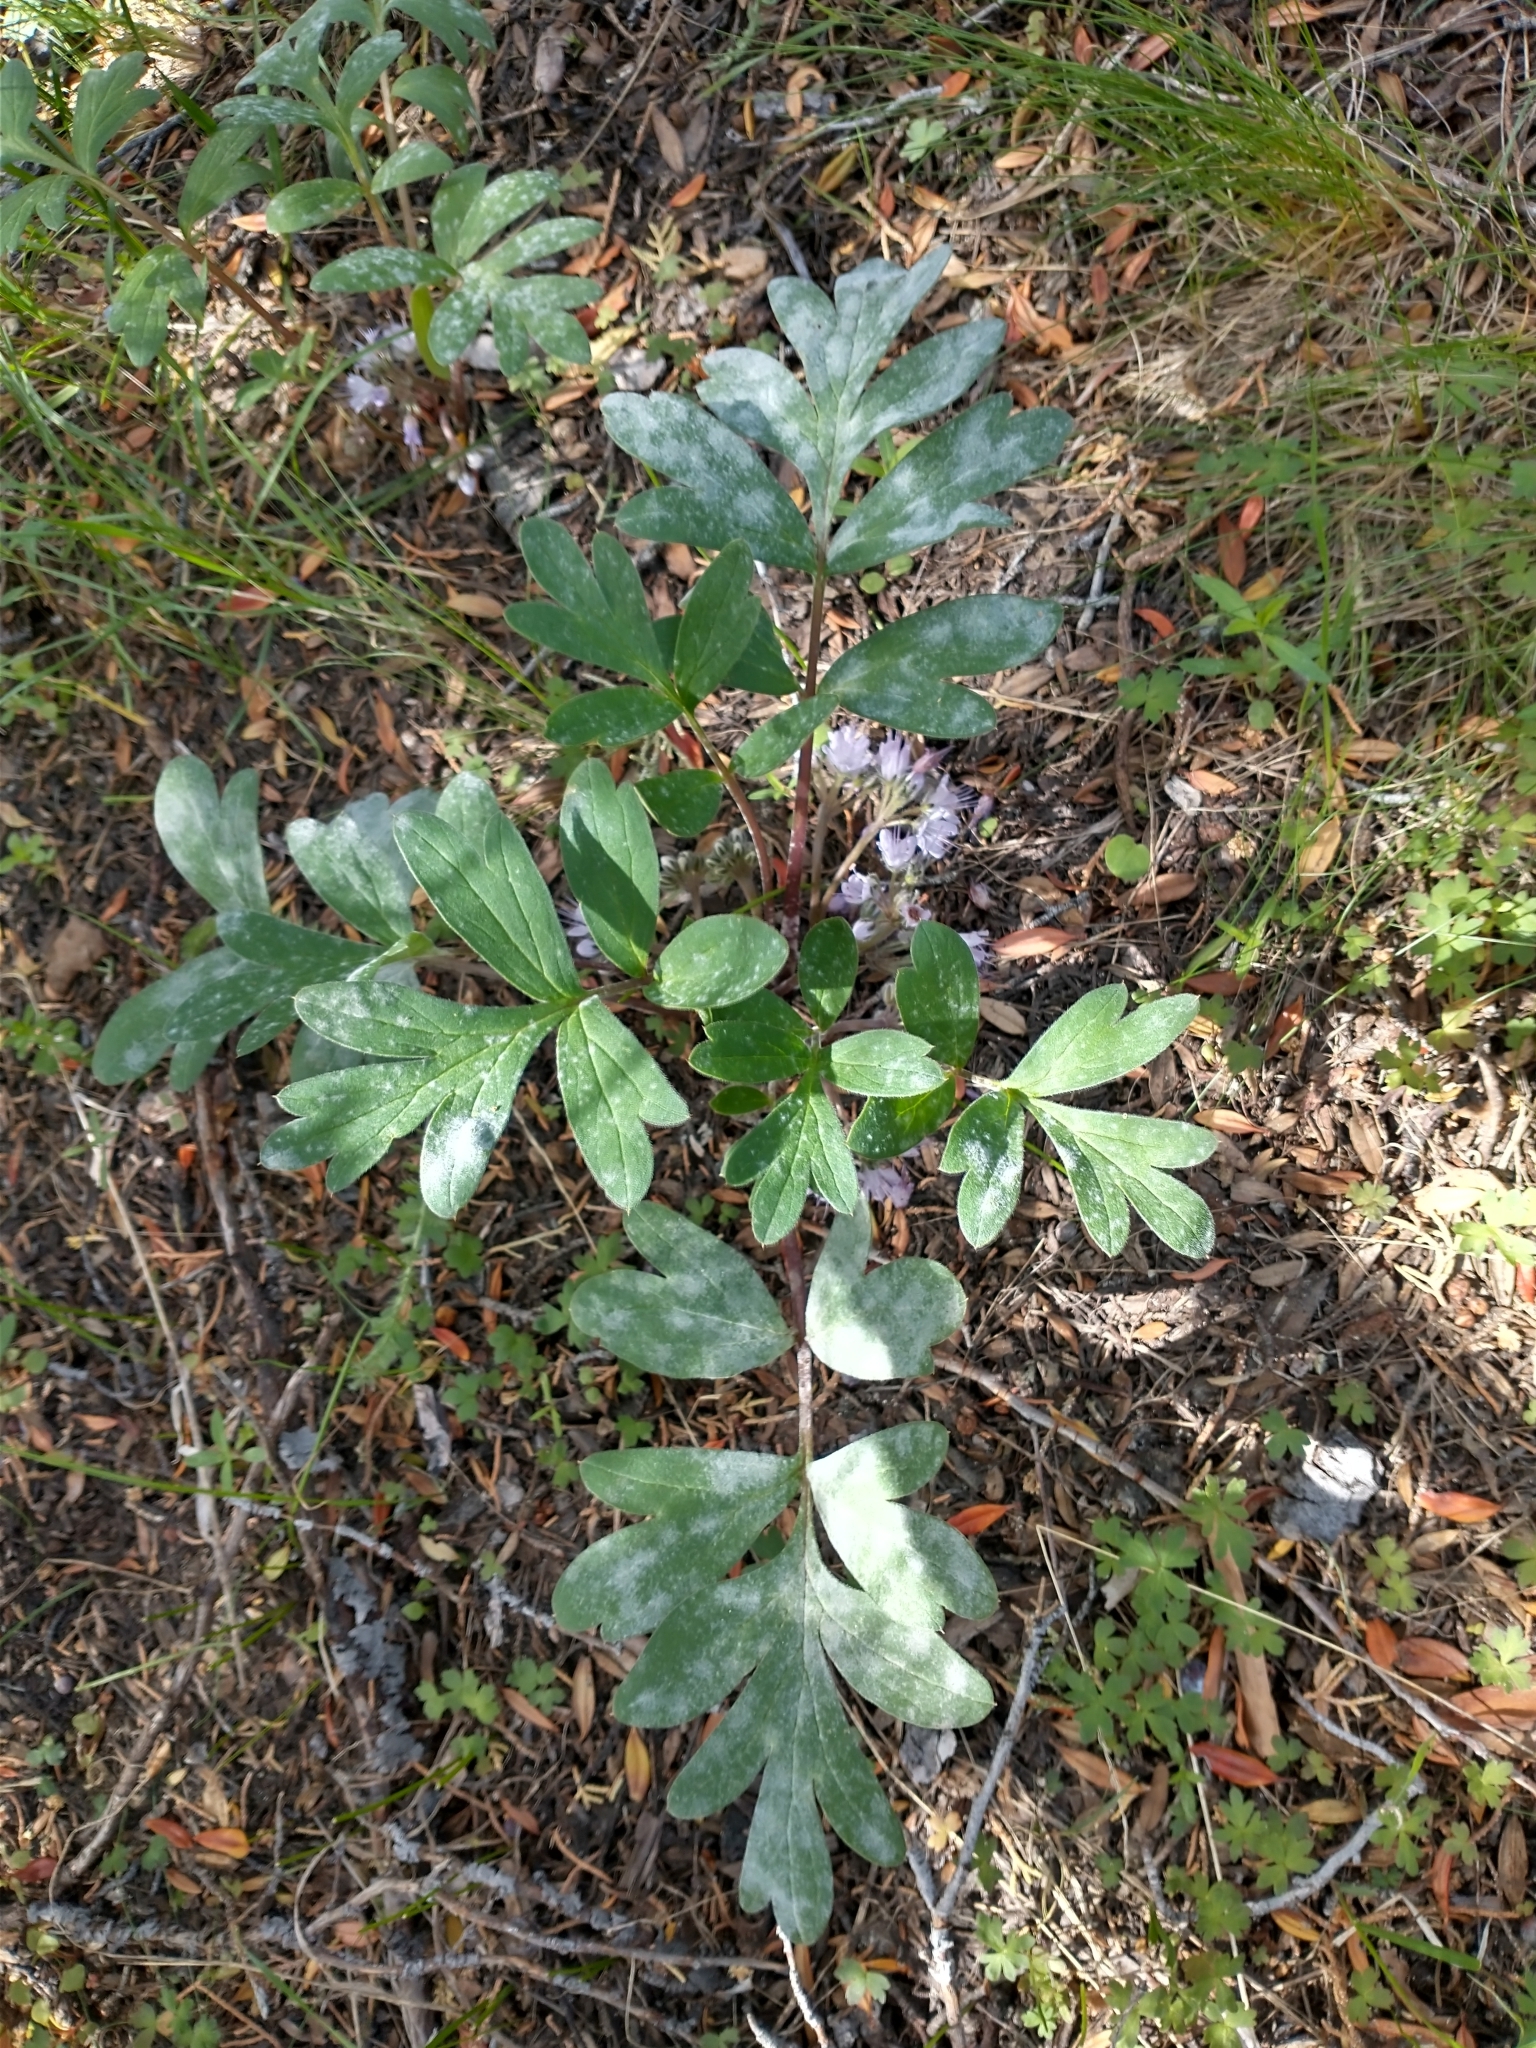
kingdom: Plantae
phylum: Tracheophyta
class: Magnoliopsida
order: Boraginales
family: Hydrophyllaceae
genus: Hydrophyllum
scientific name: Hydrophyllum alpestre
